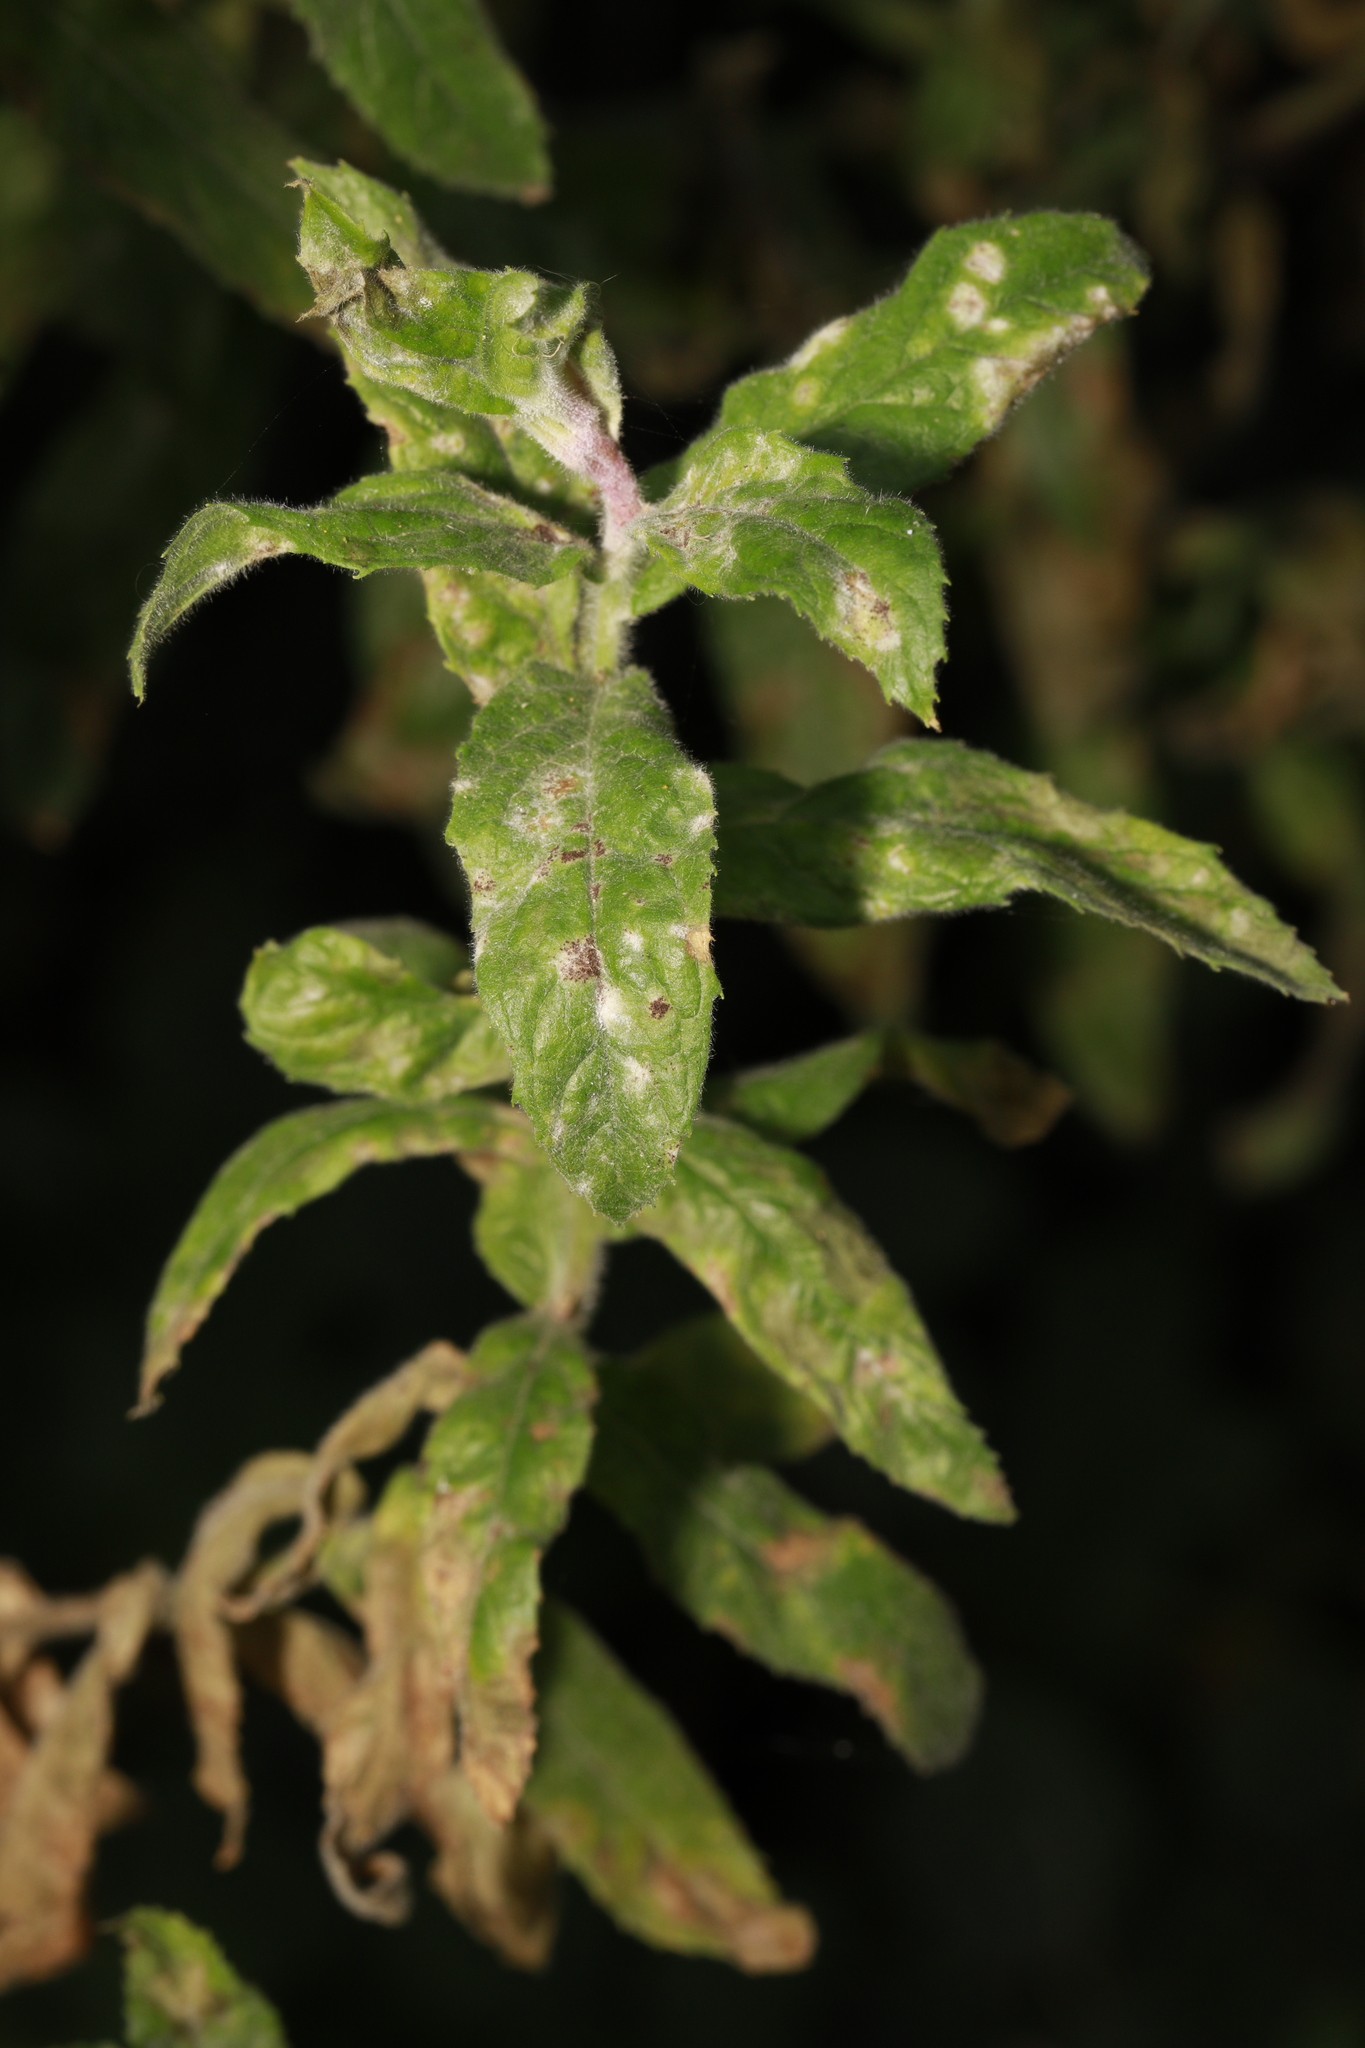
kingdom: Fungi
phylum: Ascomycota
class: Leotiomycetes
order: Helotiales
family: Erysiphaceae
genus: Podosphaera
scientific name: Podosphaera epilobii
